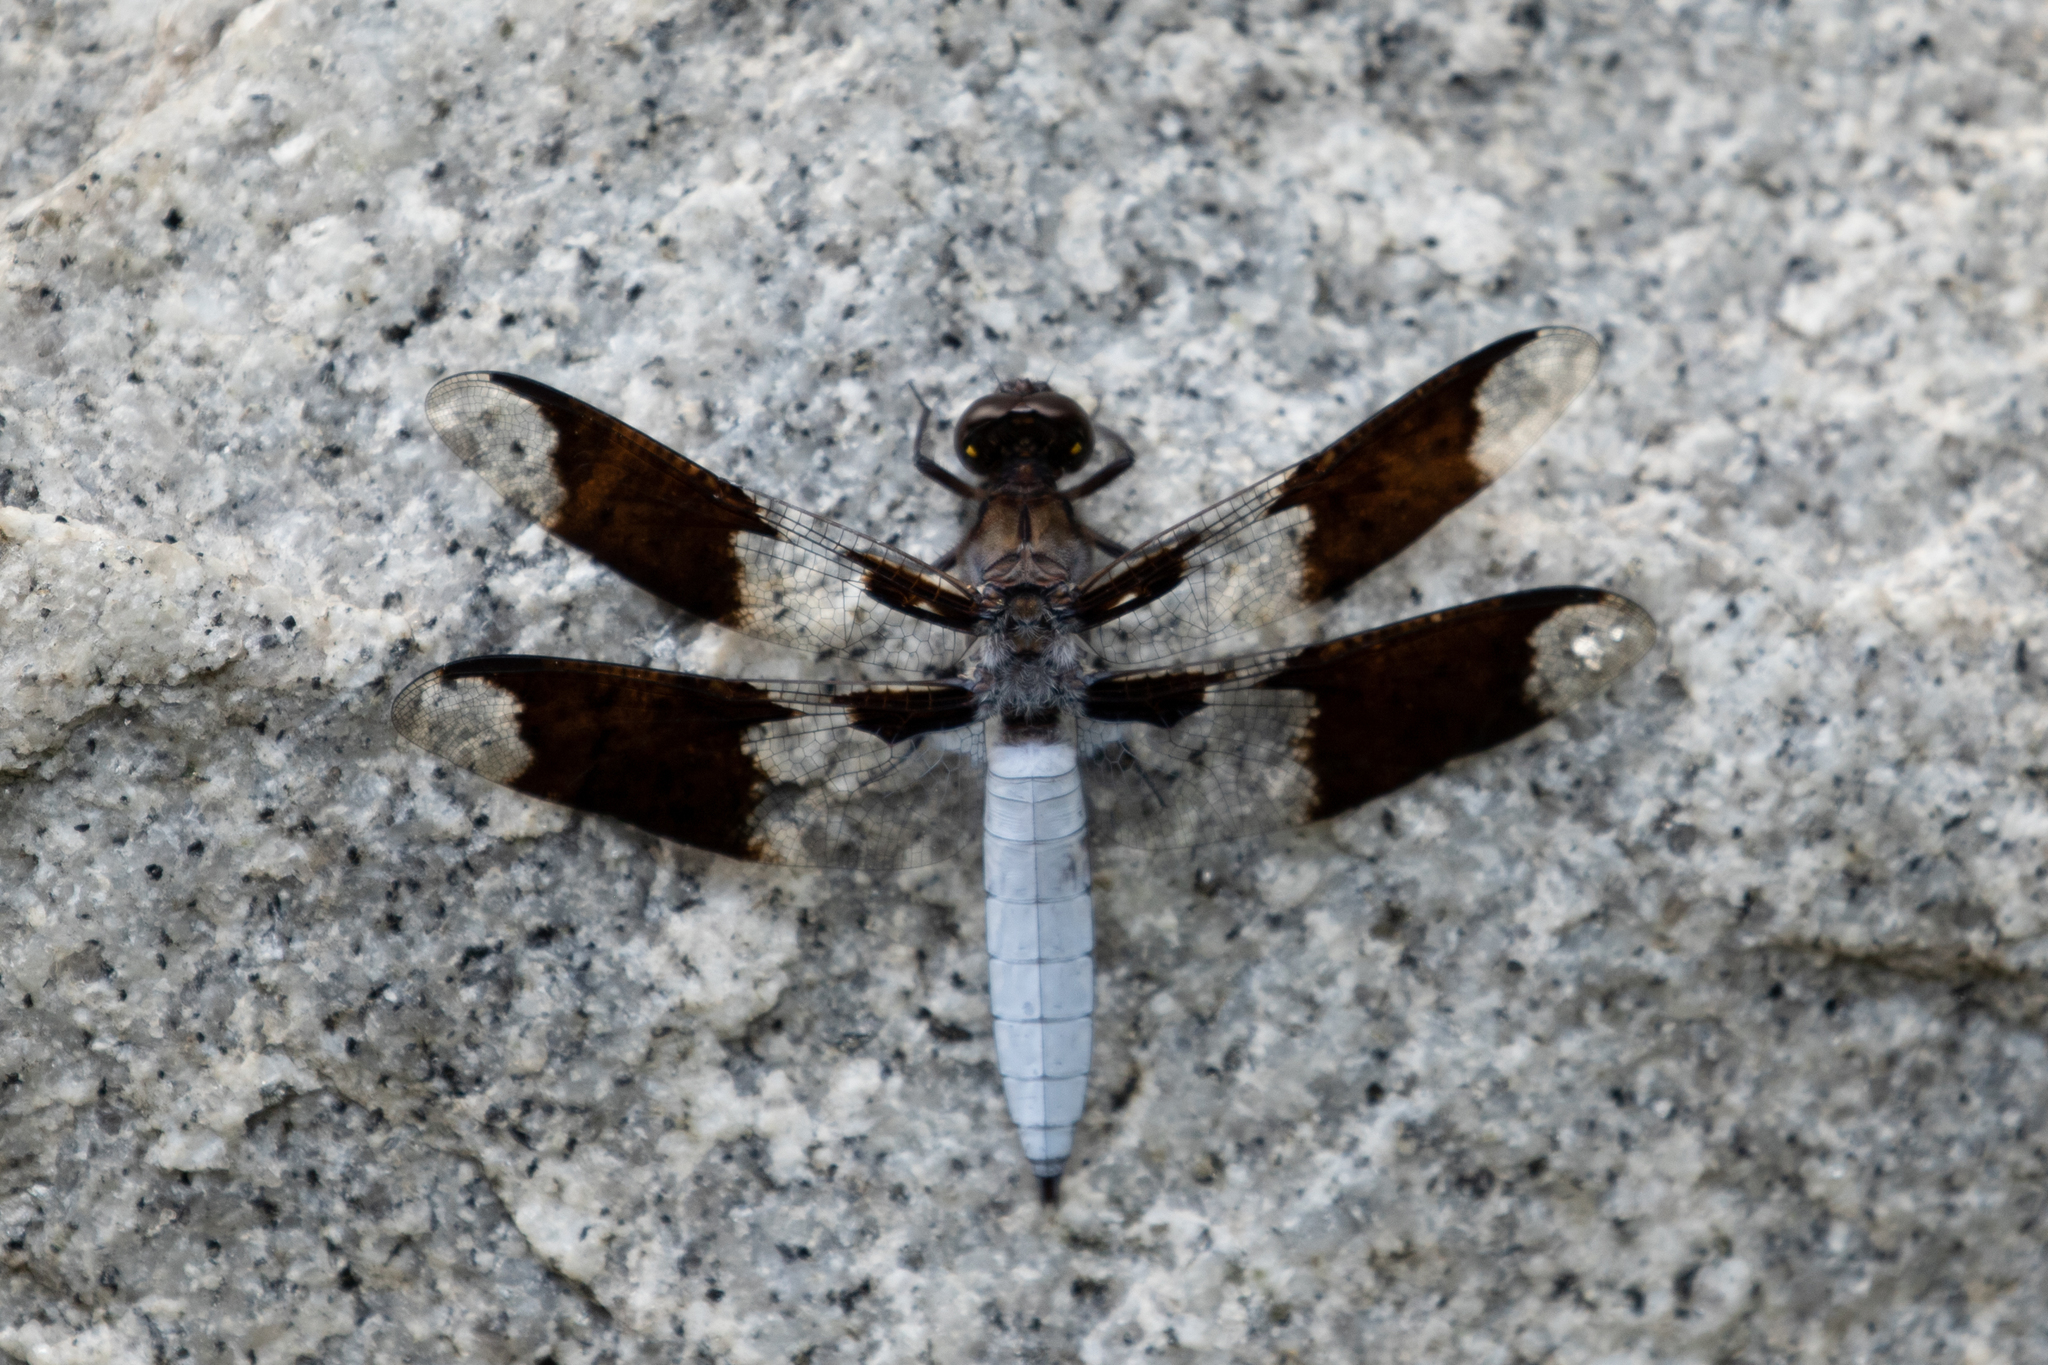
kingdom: Animalia
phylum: Arthropoda
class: Insecta
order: Odonata
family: Libellulidae
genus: Plathemis
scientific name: Plathemis lydia
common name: Common whitetail
